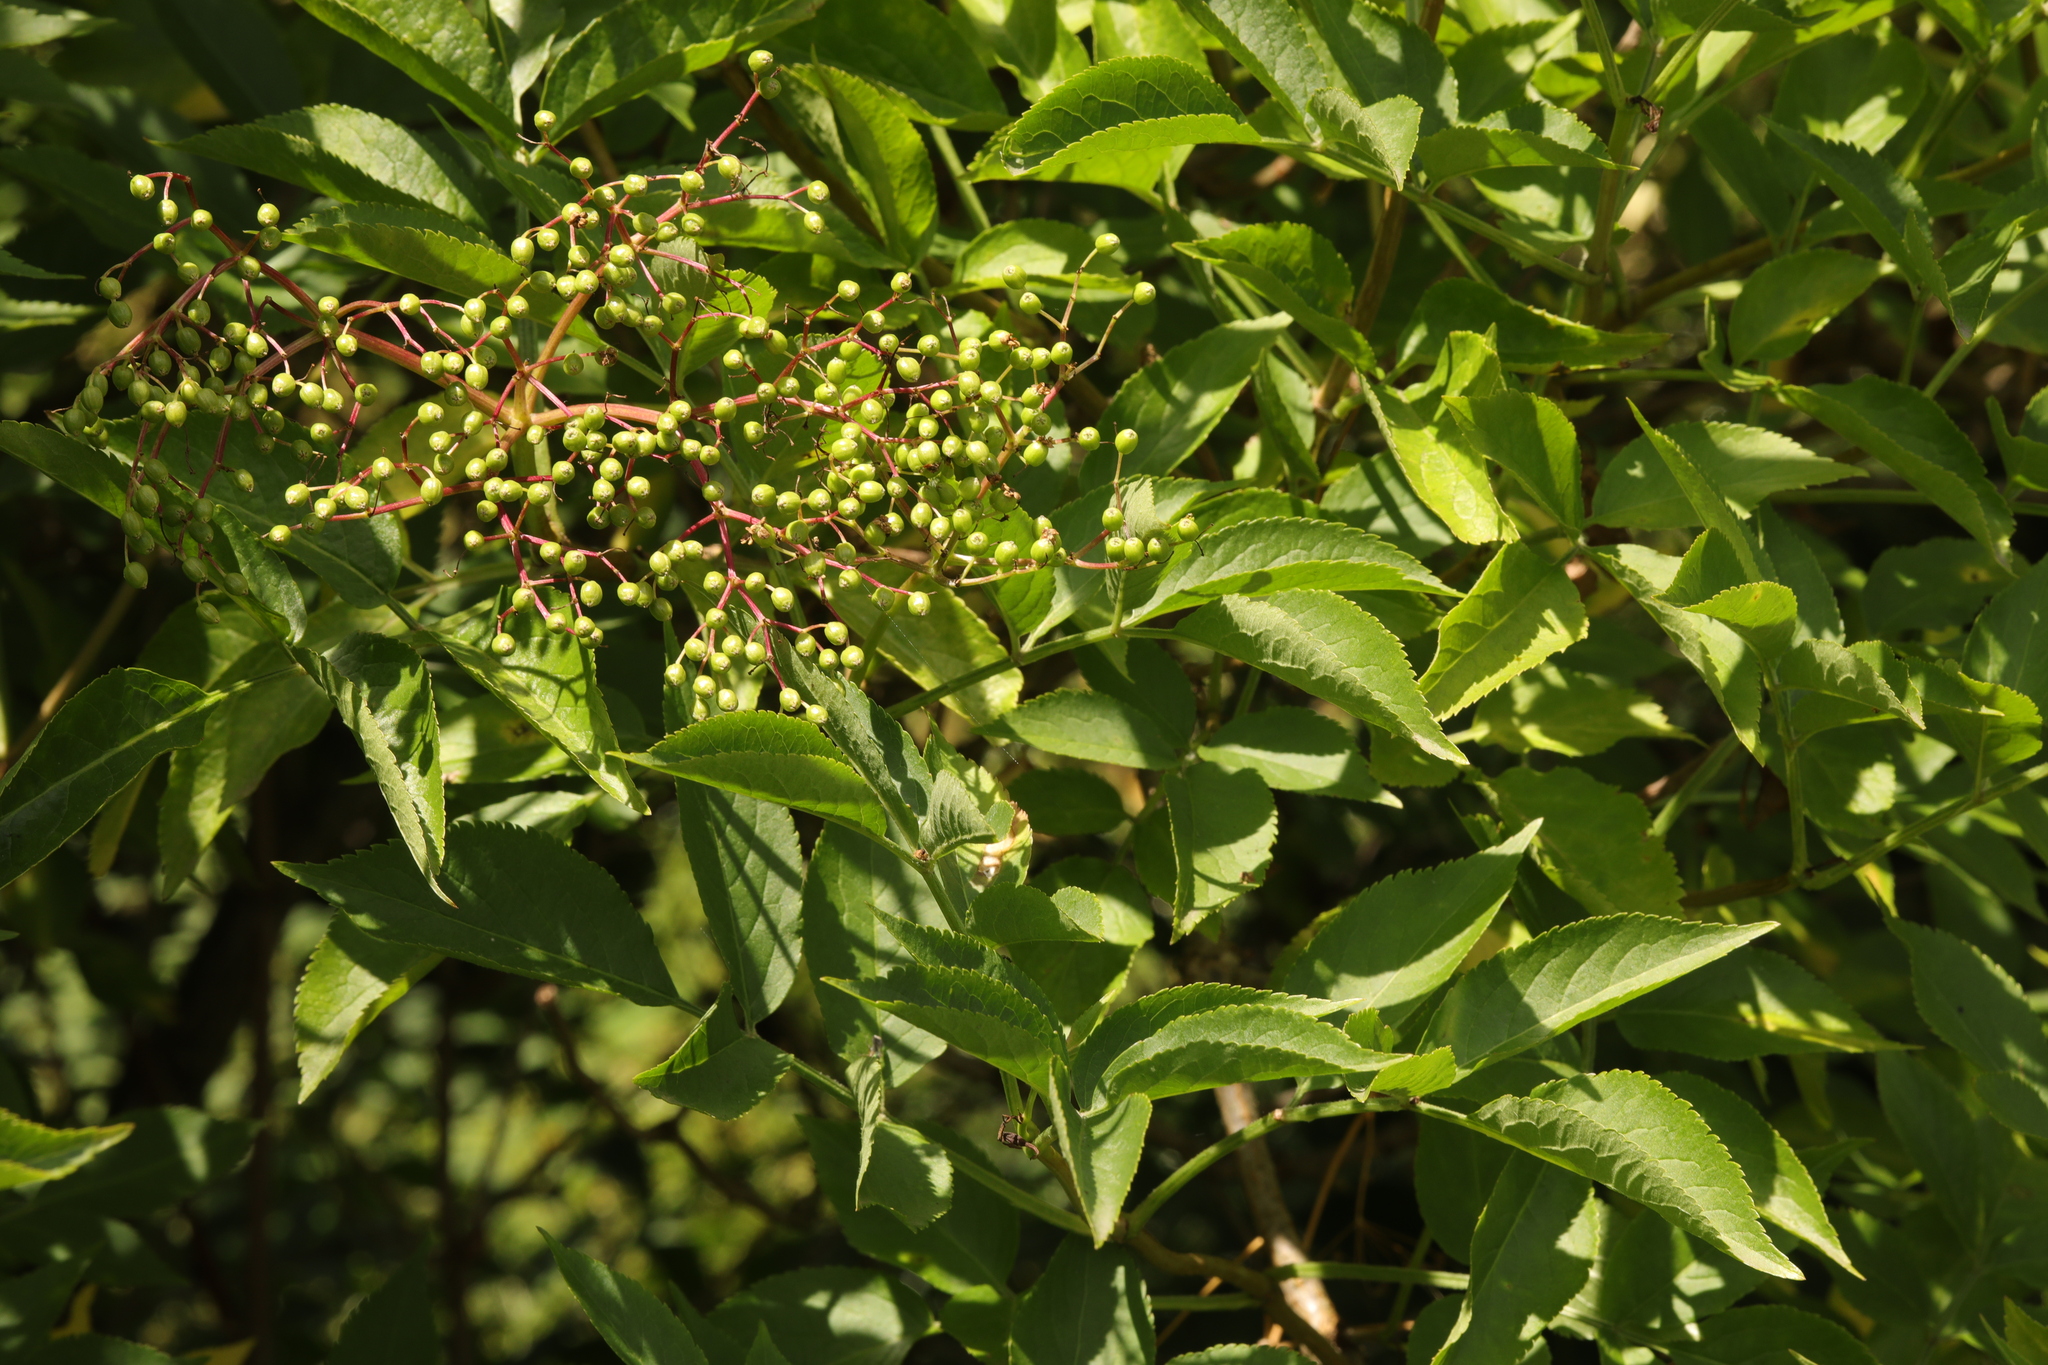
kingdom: Plantae
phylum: Tracheophyta
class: Magnoliopsida
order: Dipsacales
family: Viburnaceae
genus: Sambucus
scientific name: Sambucus nigra
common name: Elder
